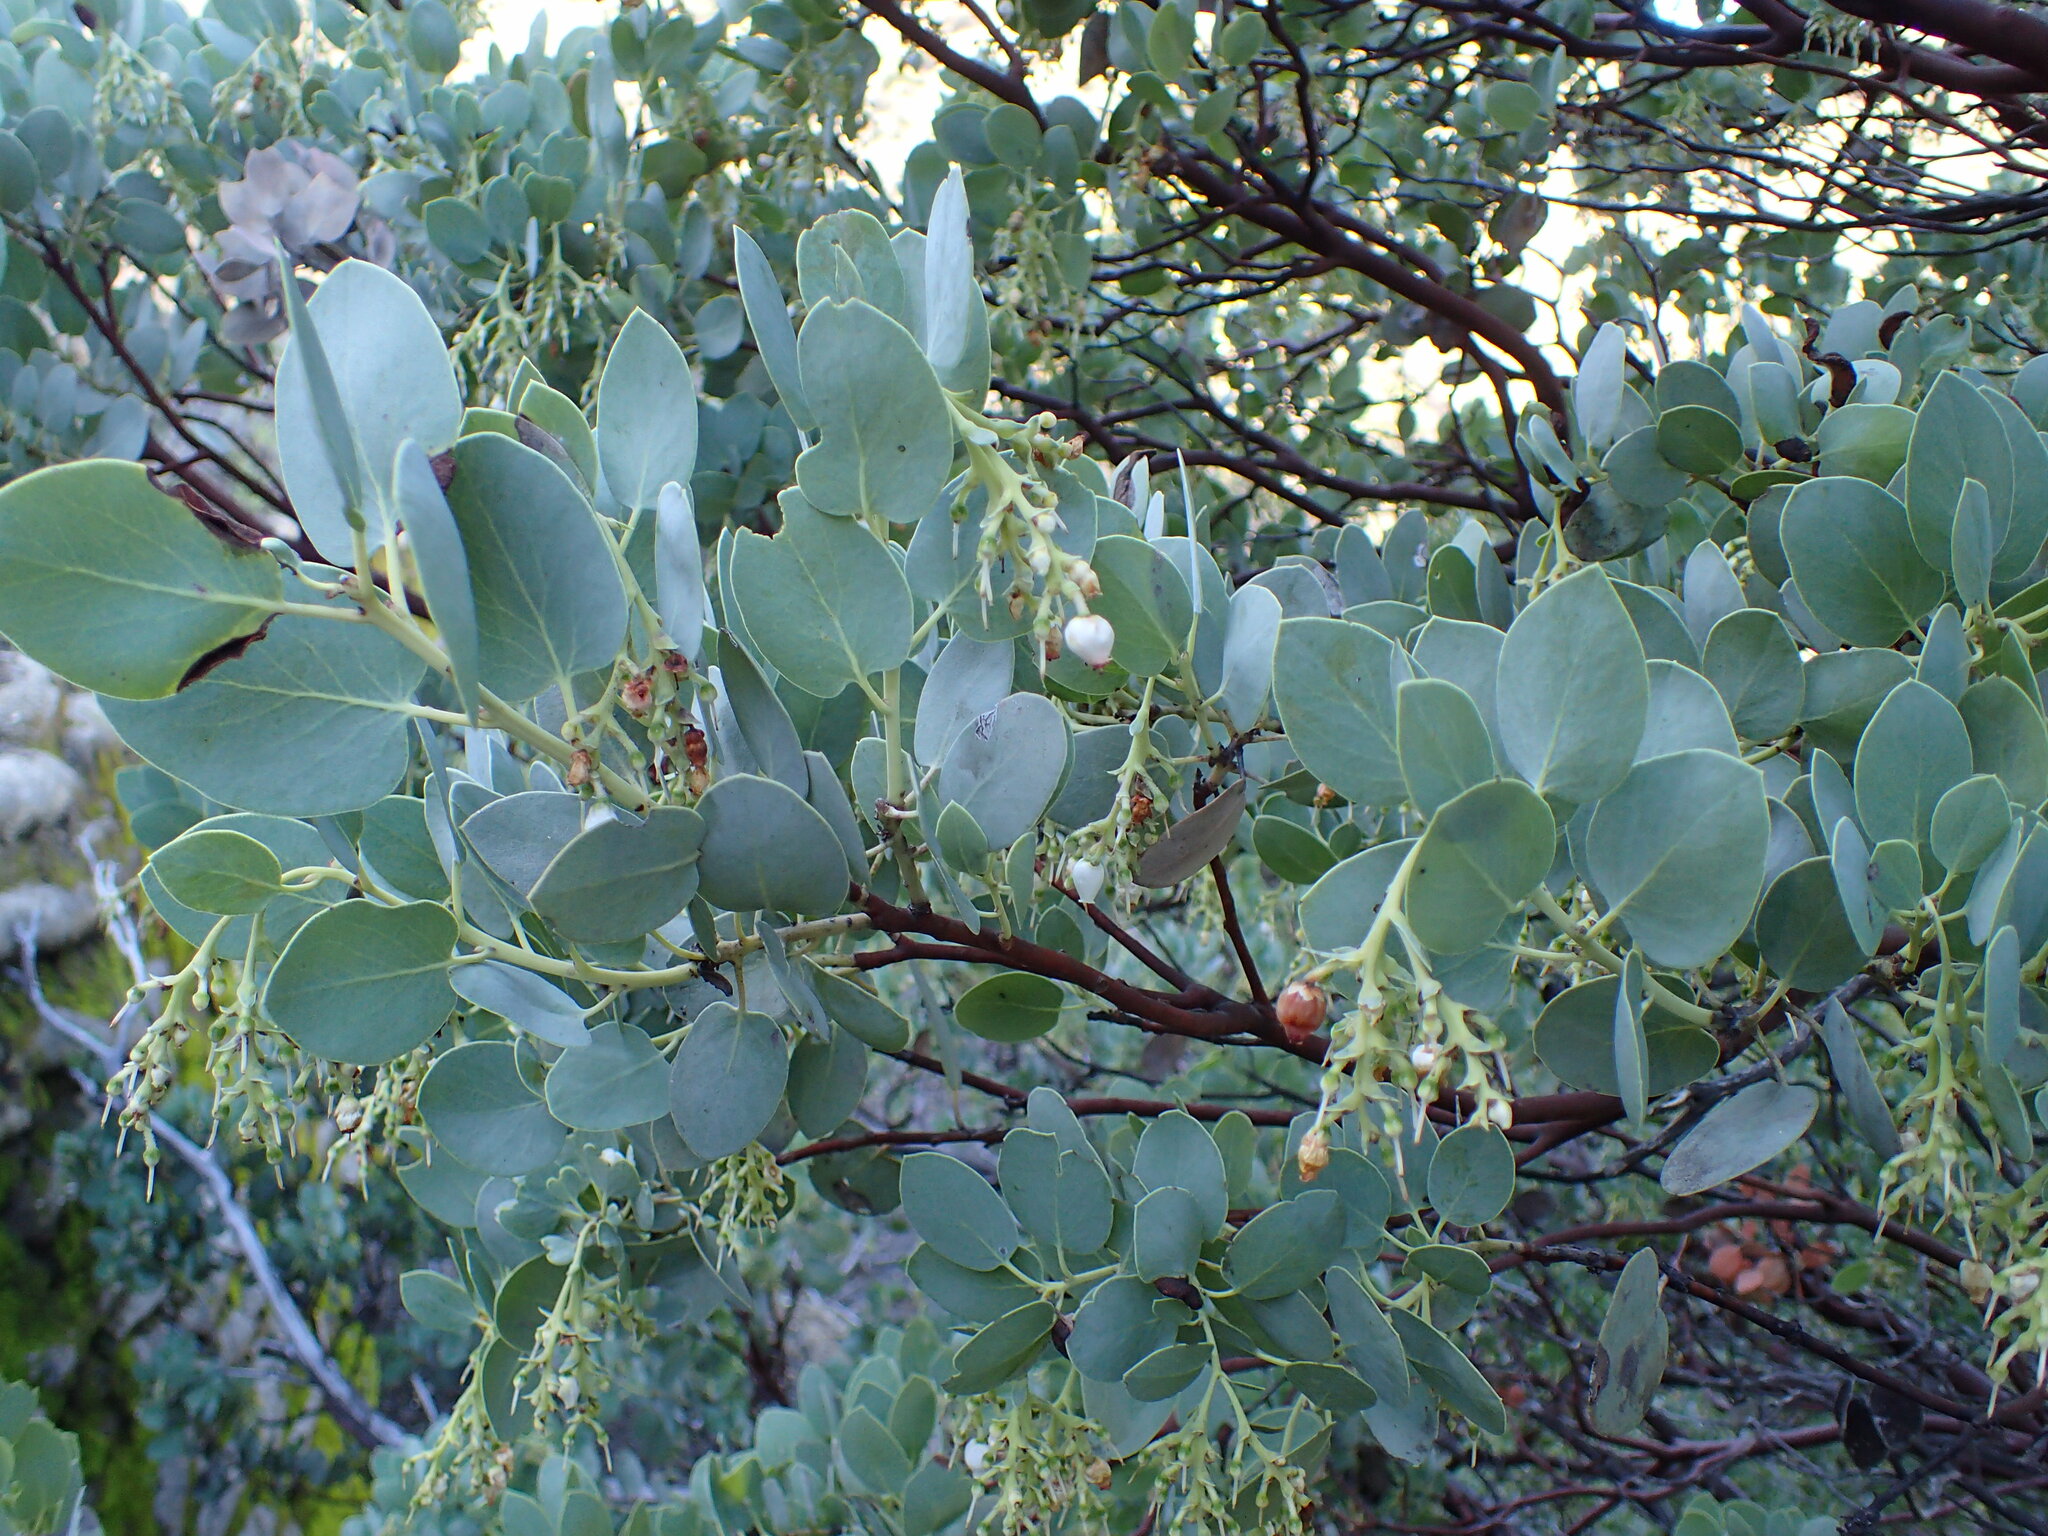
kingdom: Plantae
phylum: Tracheophyta
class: Magnoliopsida
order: Ericales
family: Ericaceae
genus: Arctostaphylos
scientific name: Arctostaphylos glauca
